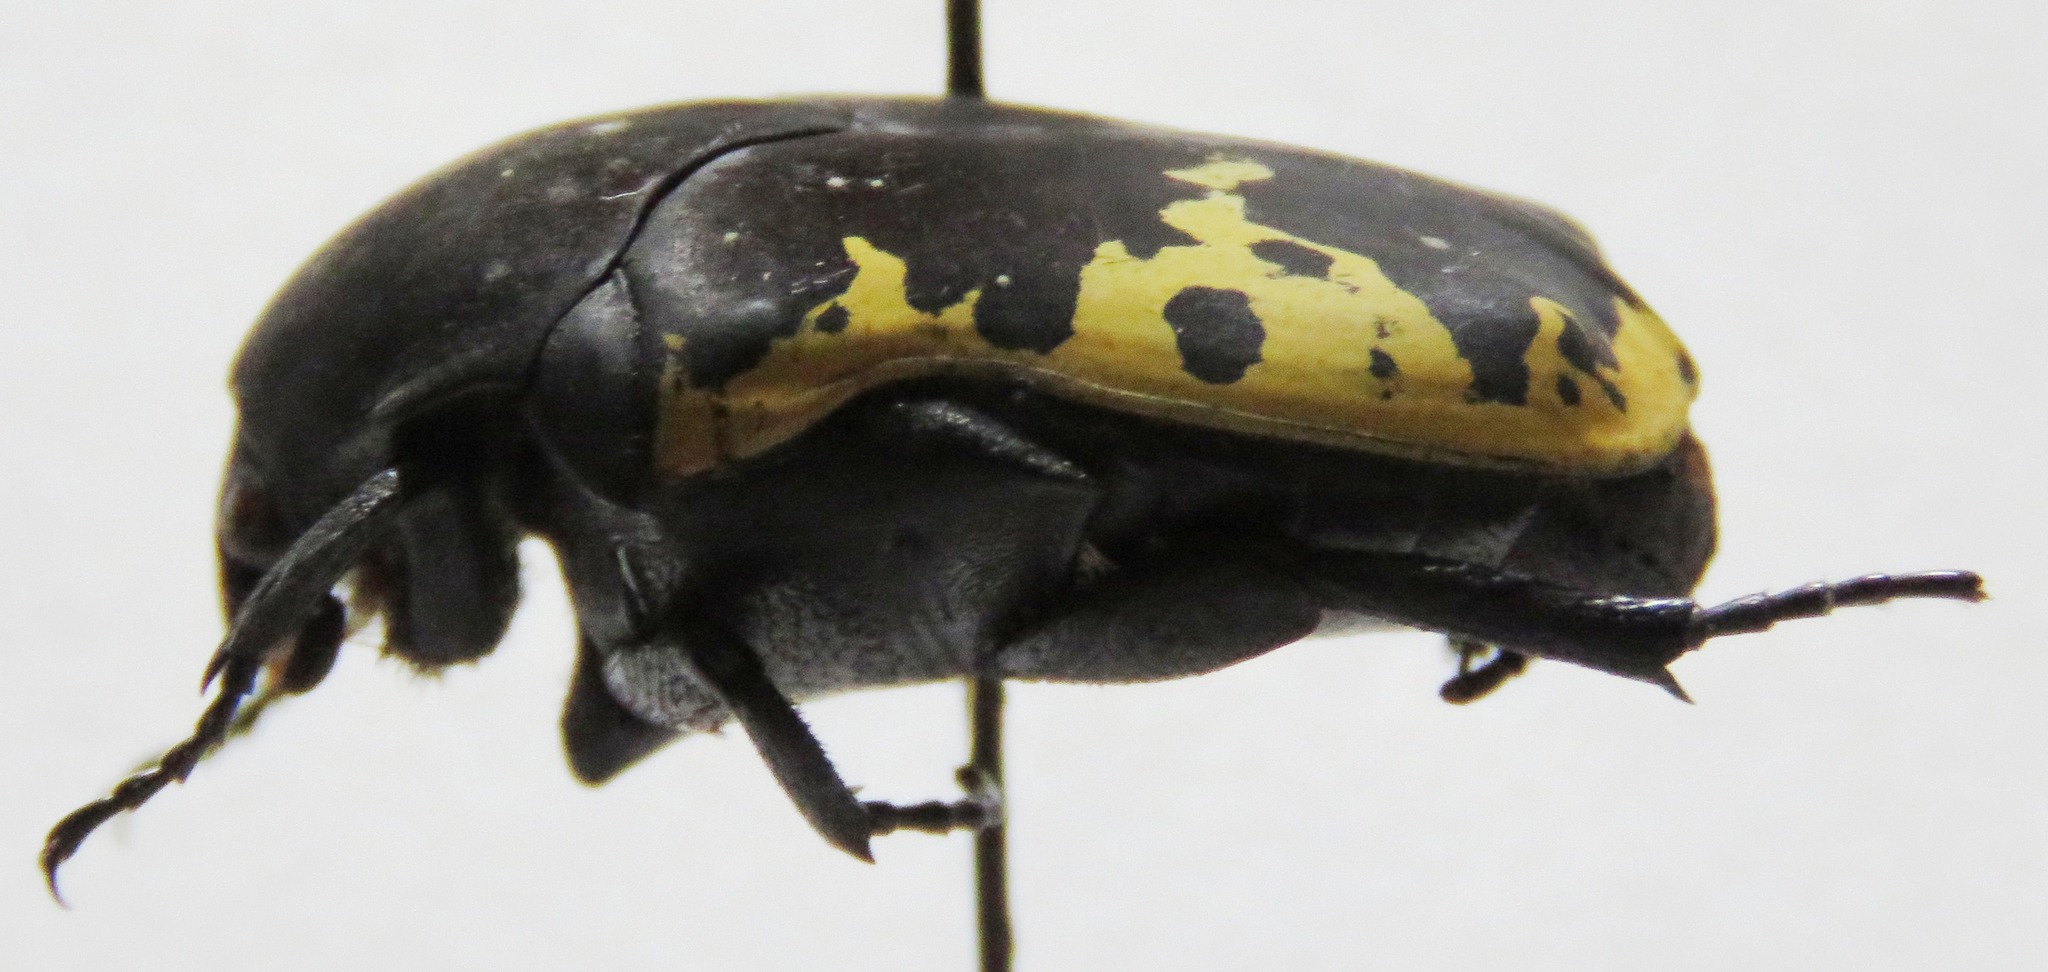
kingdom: Animalia
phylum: Arthropoda
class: Insecta
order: Coleoptera
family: Scarabaeidae
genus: Gymnetis
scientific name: Gymnetis ramulosa
